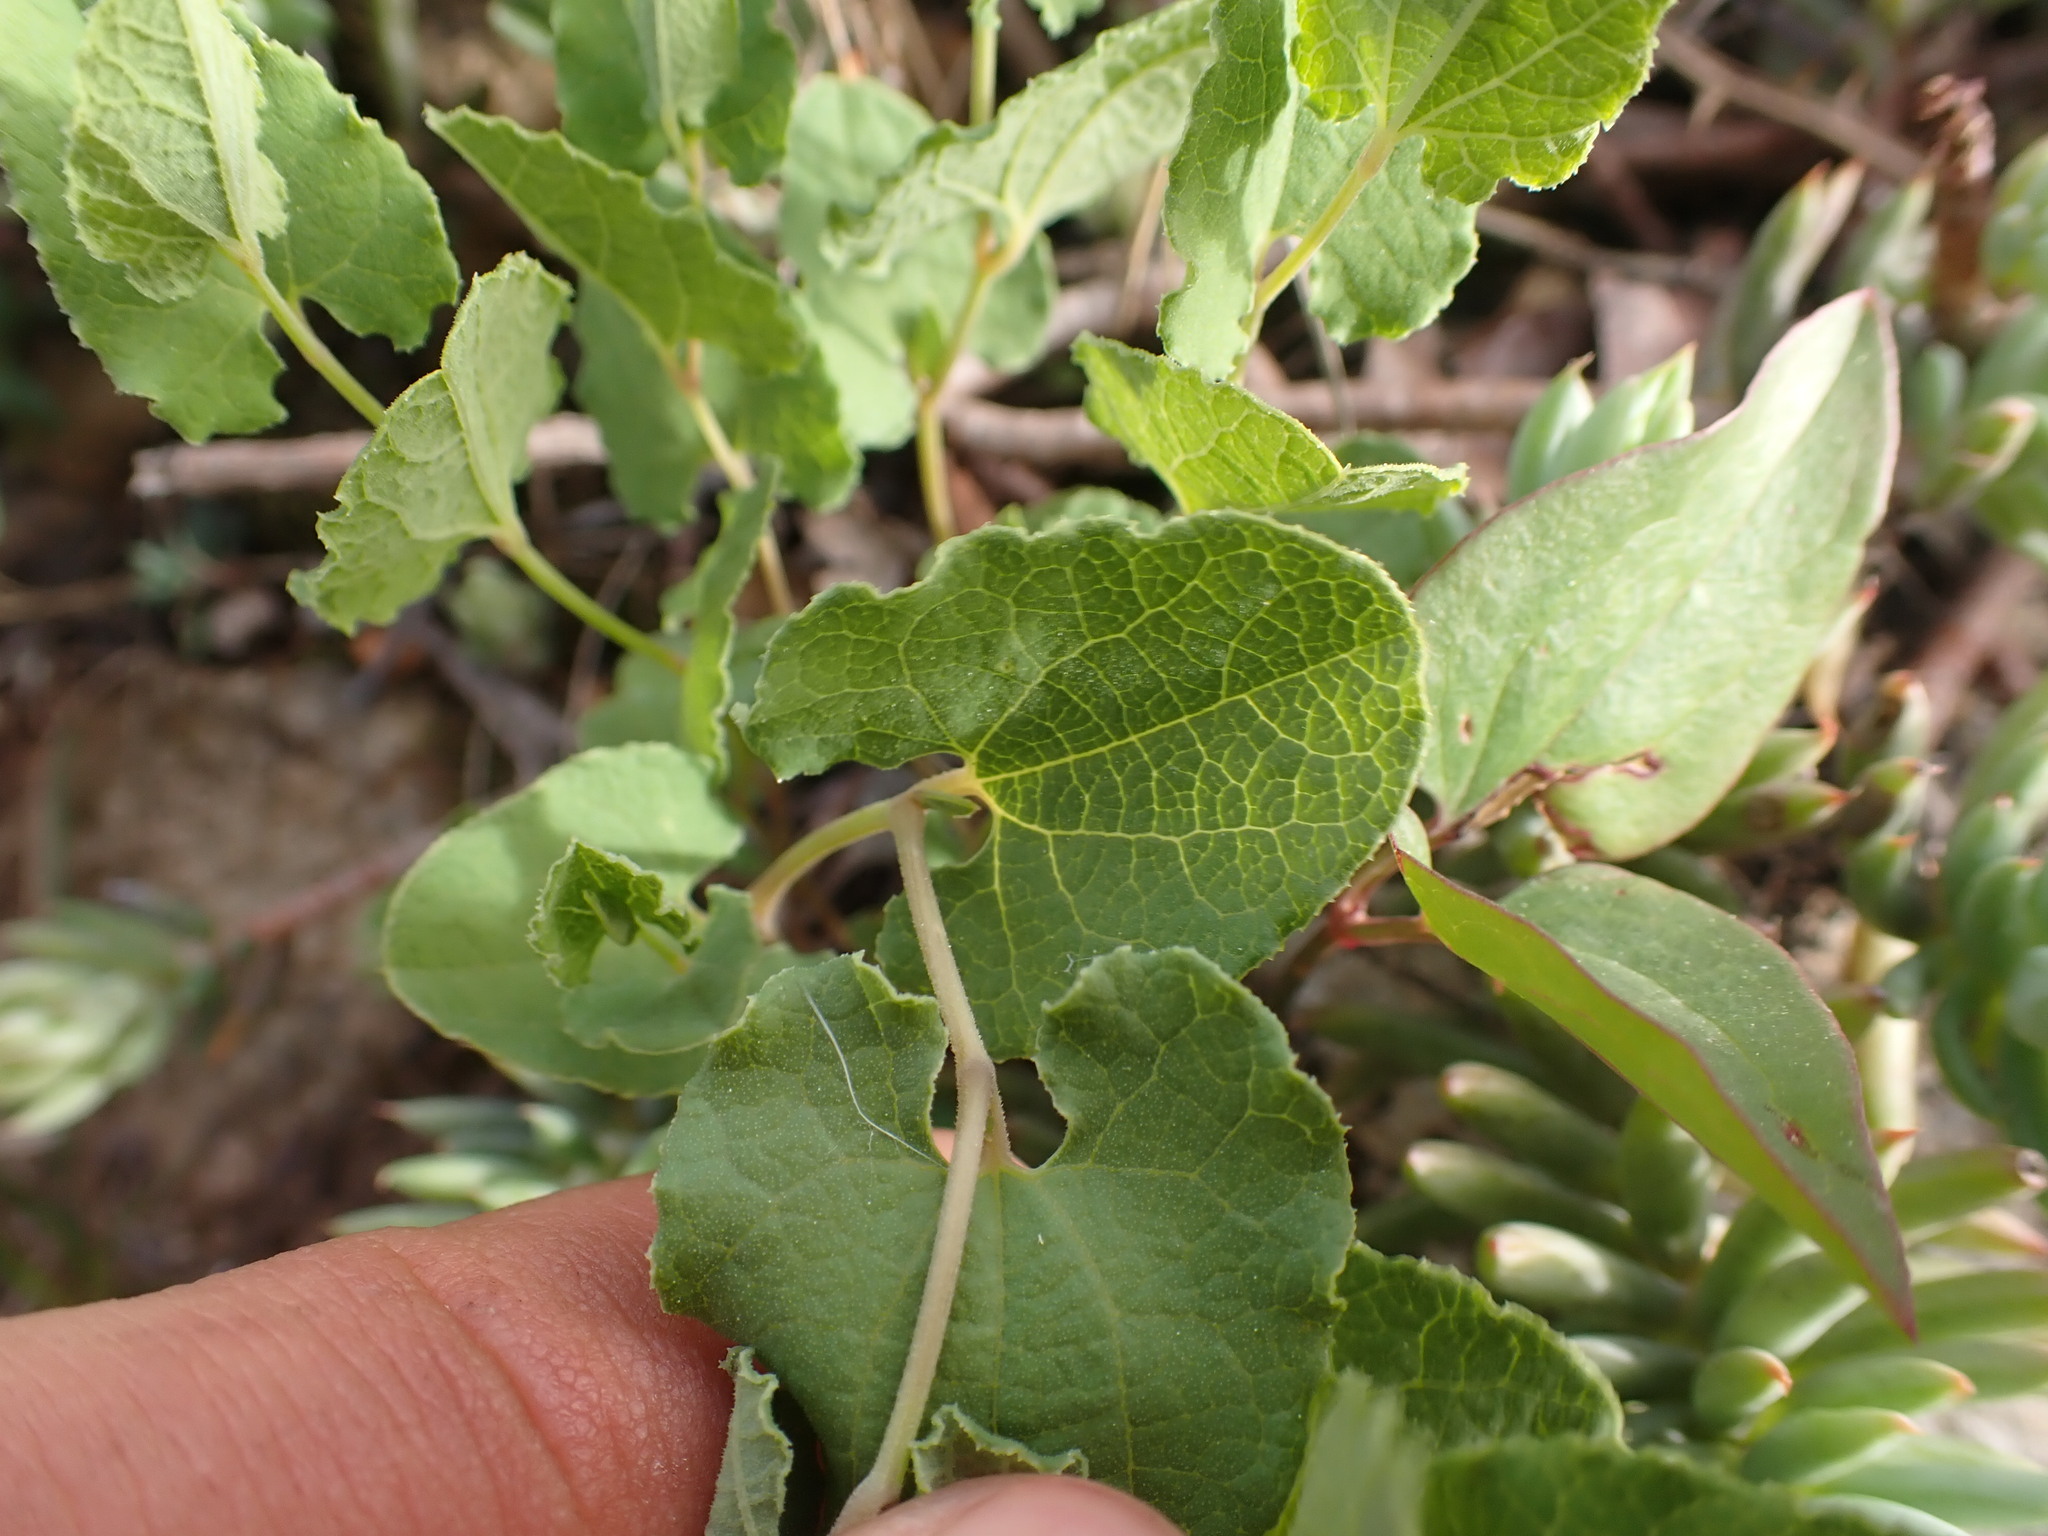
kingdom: Plantae
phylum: Tracheophyta
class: Magnoliopsida
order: Piperales
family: Aristolochiaceae
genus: Aristolochia
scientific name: Aristolochia pistolochia
